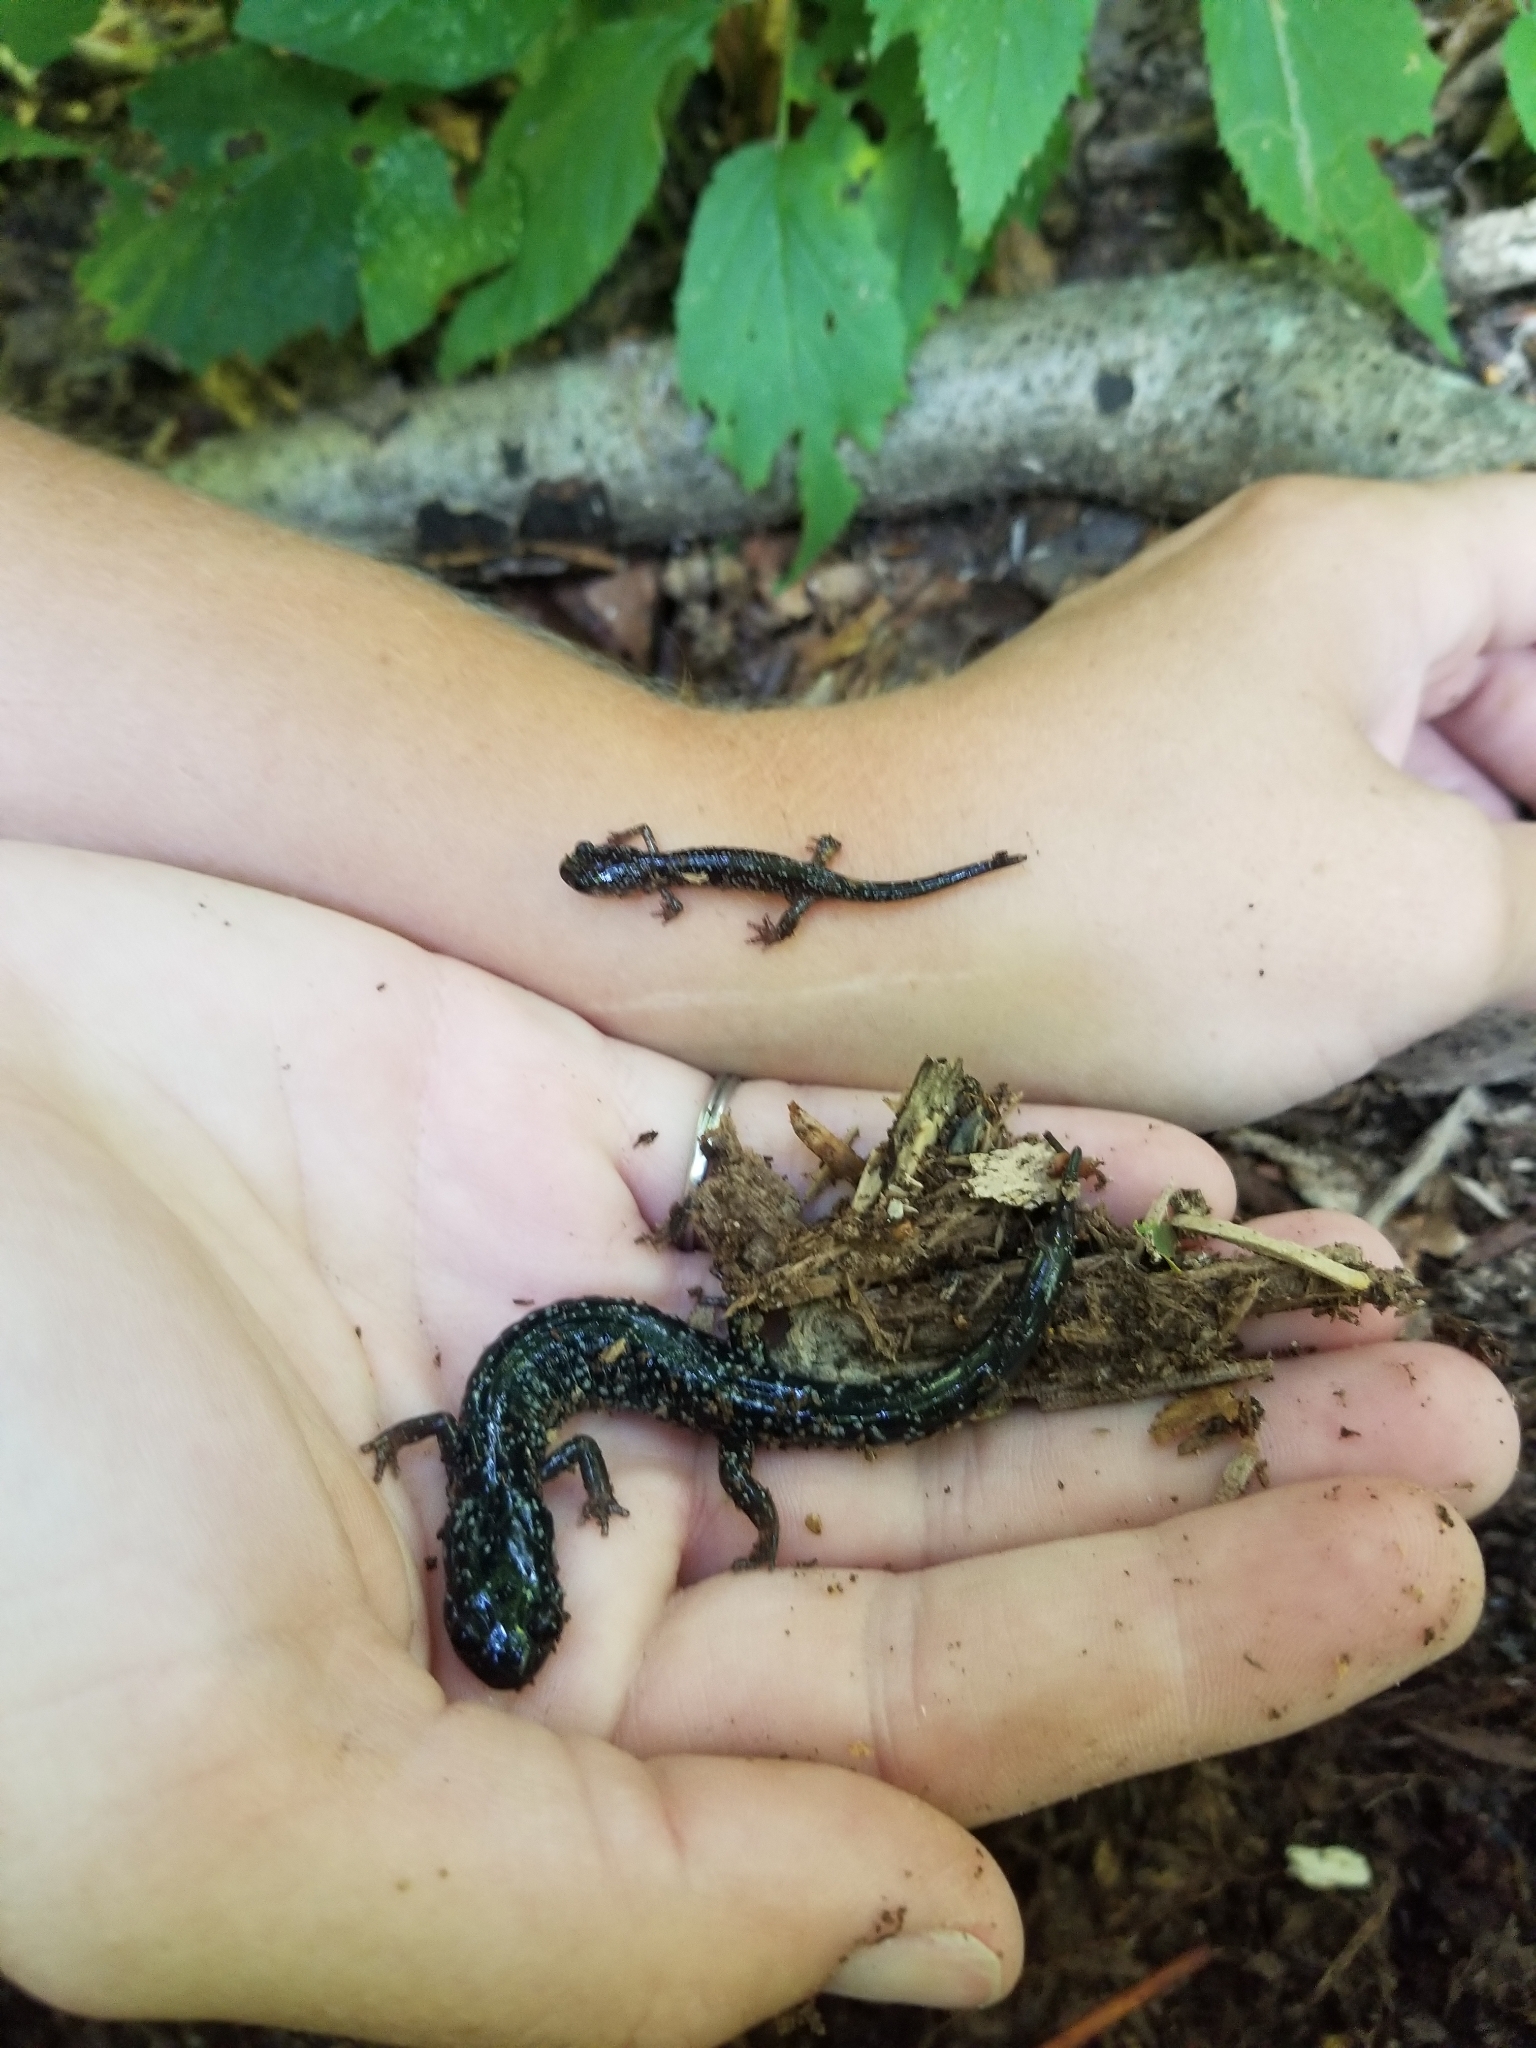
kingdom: Animalia
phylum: Chordata
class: Amphibia
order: Caudata
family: Plethodontidae
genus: Plethodon
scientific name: Plethodon cylindraceus
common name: White-spotted slimy salamander
